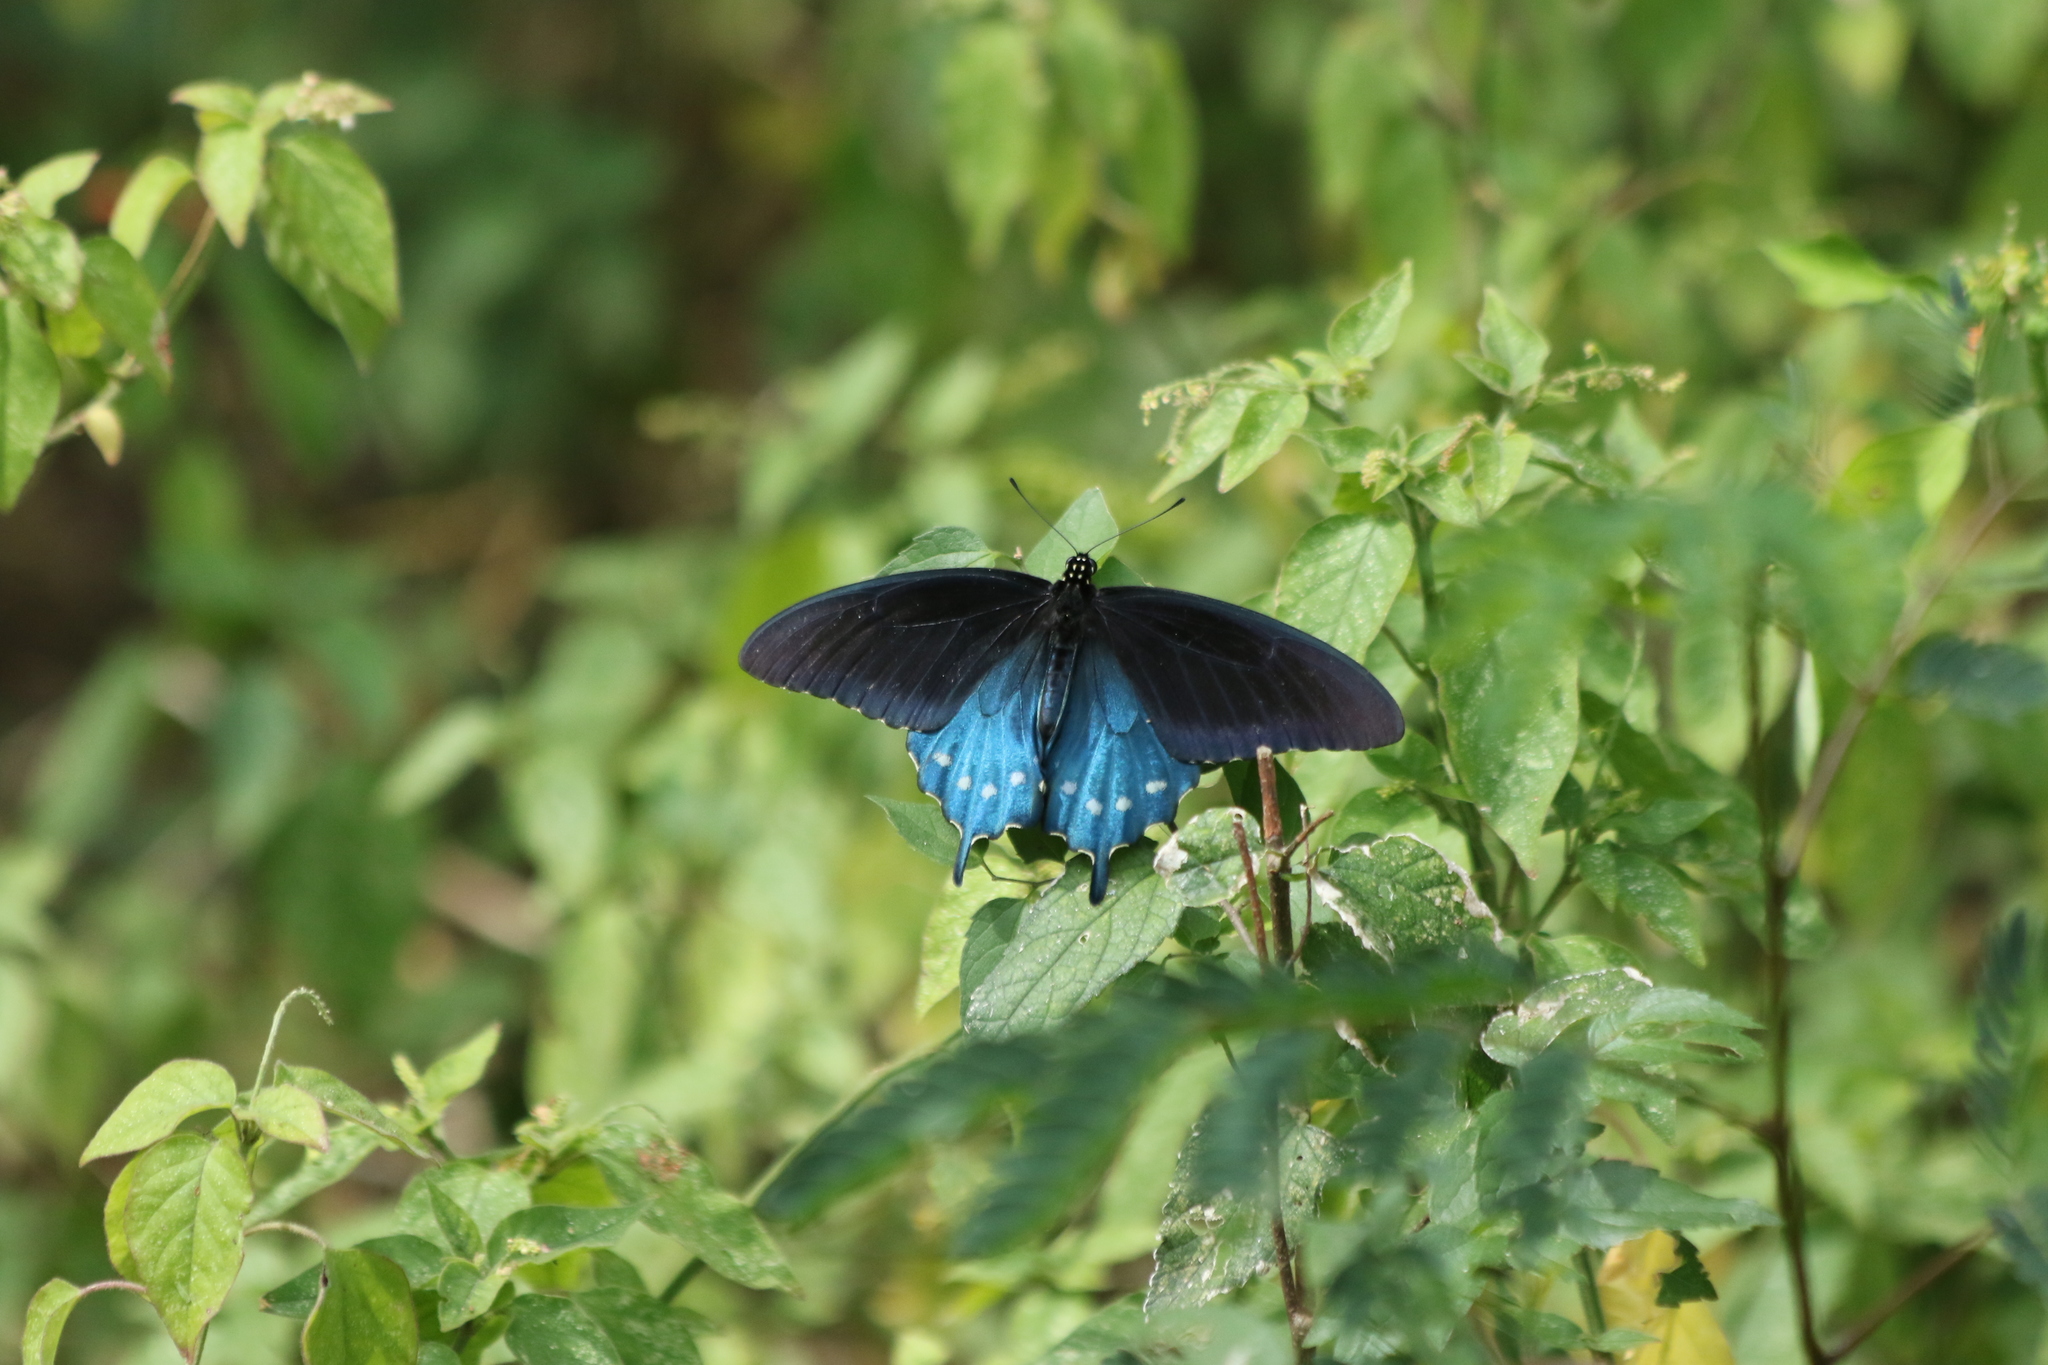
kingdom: Animalia
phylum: Arthropoda
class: Insecta
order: Lepidoptera
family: Papilionidae
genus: Battus
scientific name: Battus philenor
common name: Pipevine swallowtail
